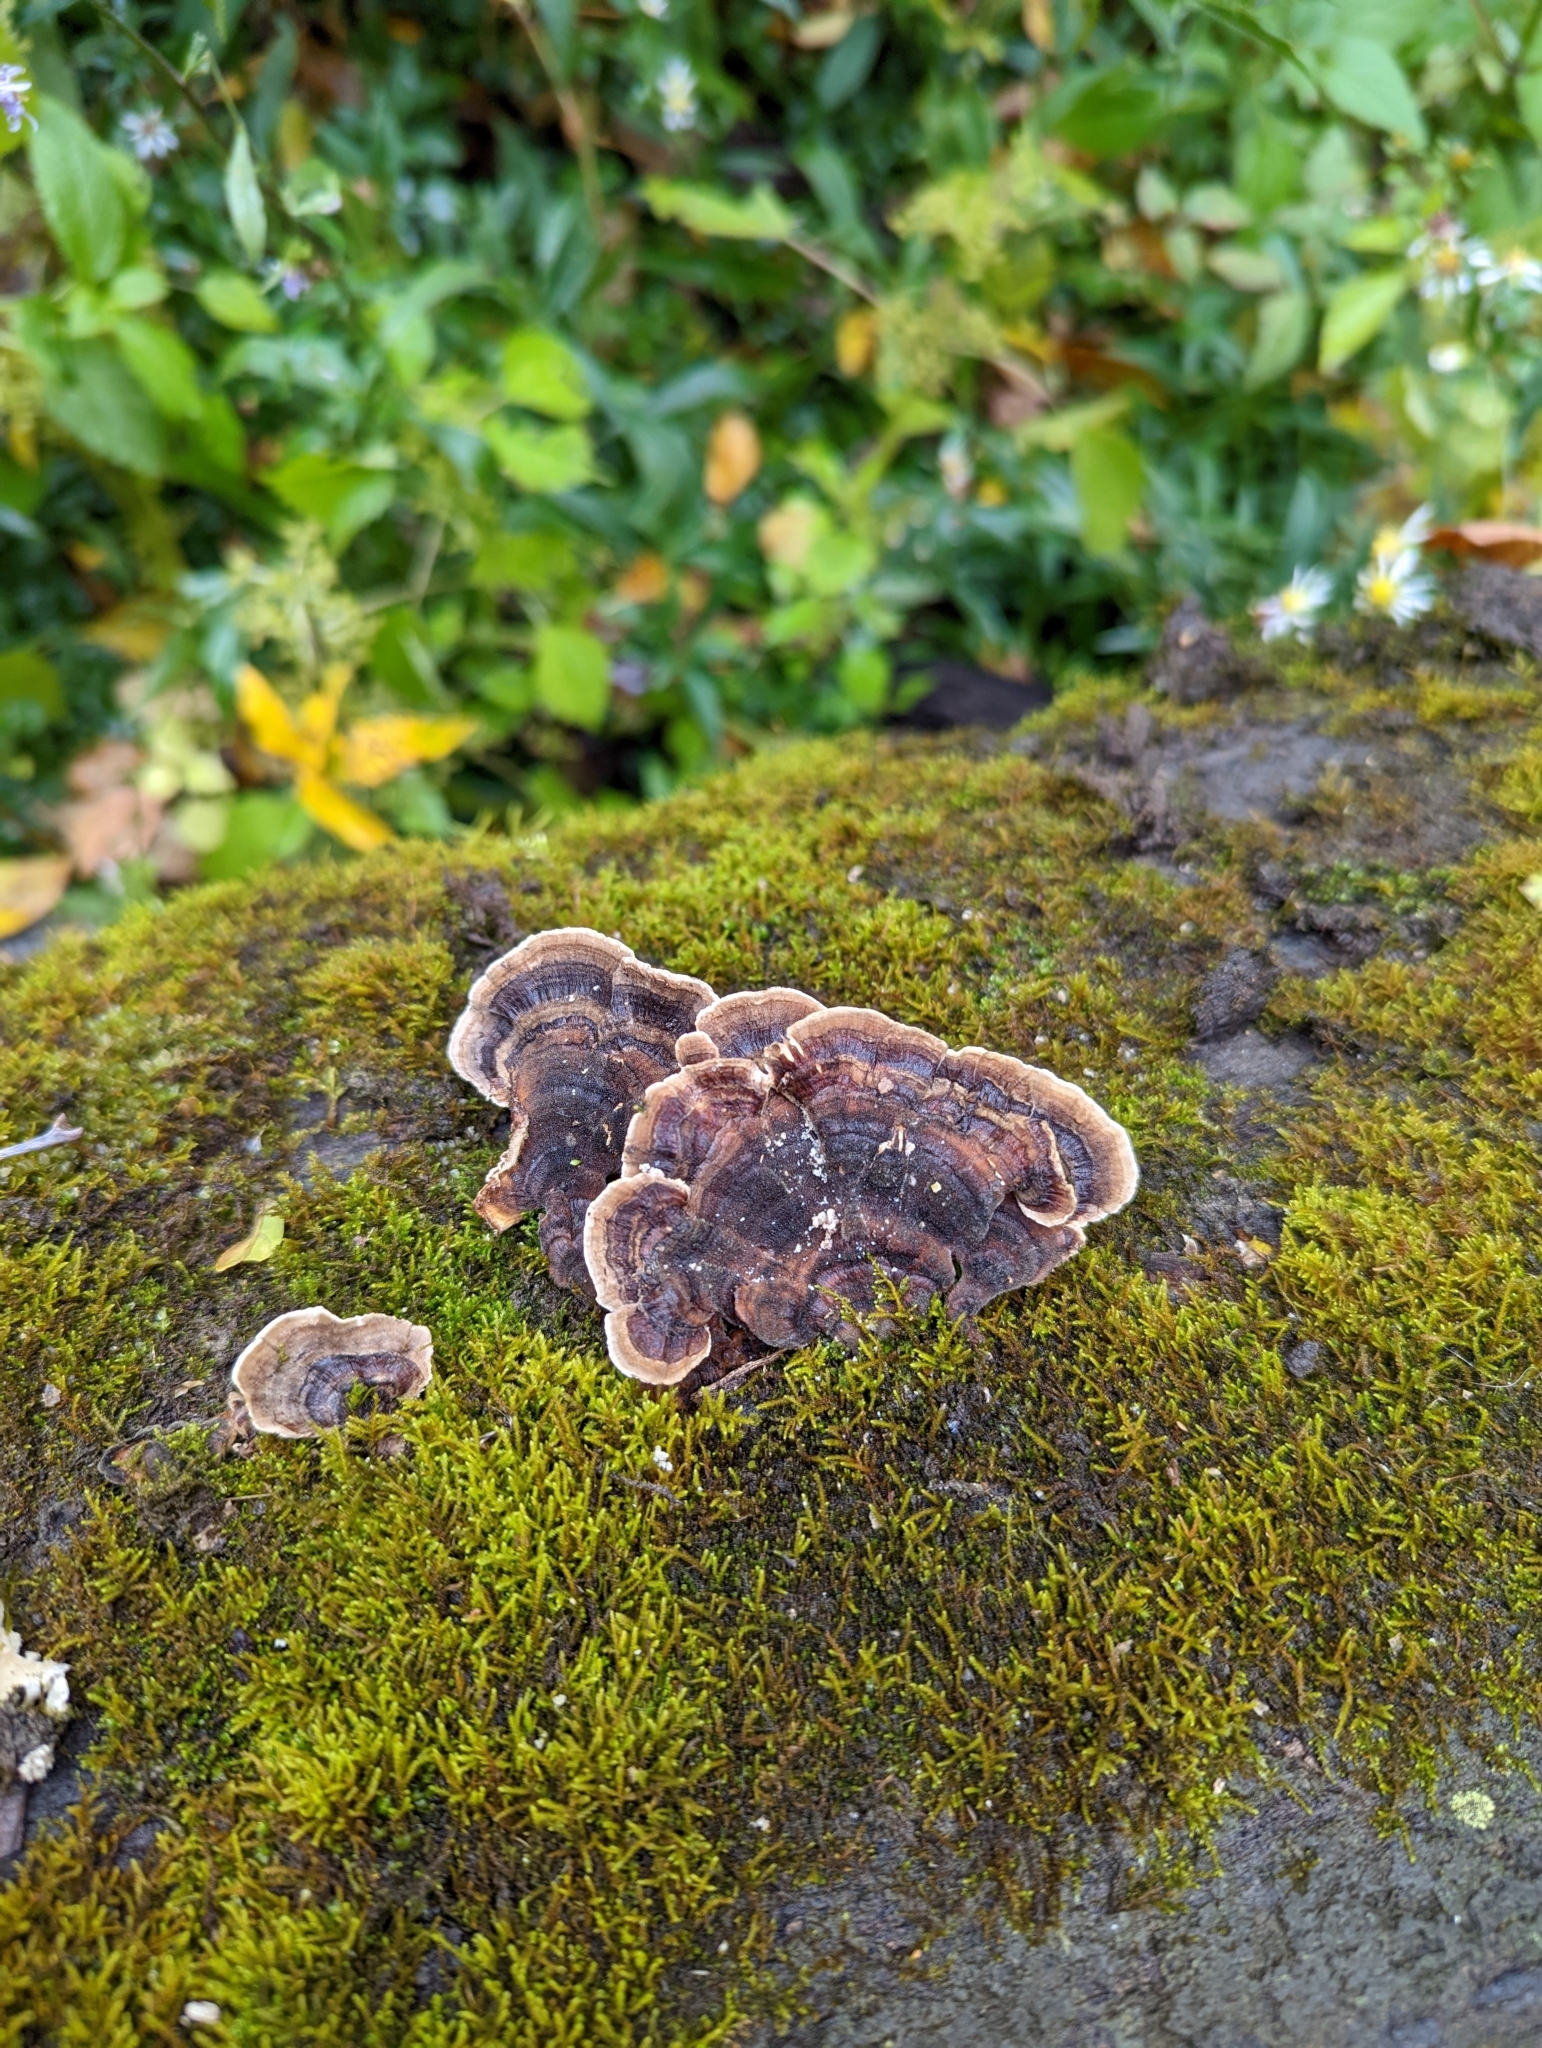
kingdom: Fungi
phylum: Basidiomycota
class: Agaricomycetes
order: Polyporales
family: Polyporaceae
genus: Trametes
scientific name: Trametes versicolor
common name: Turkeytail
